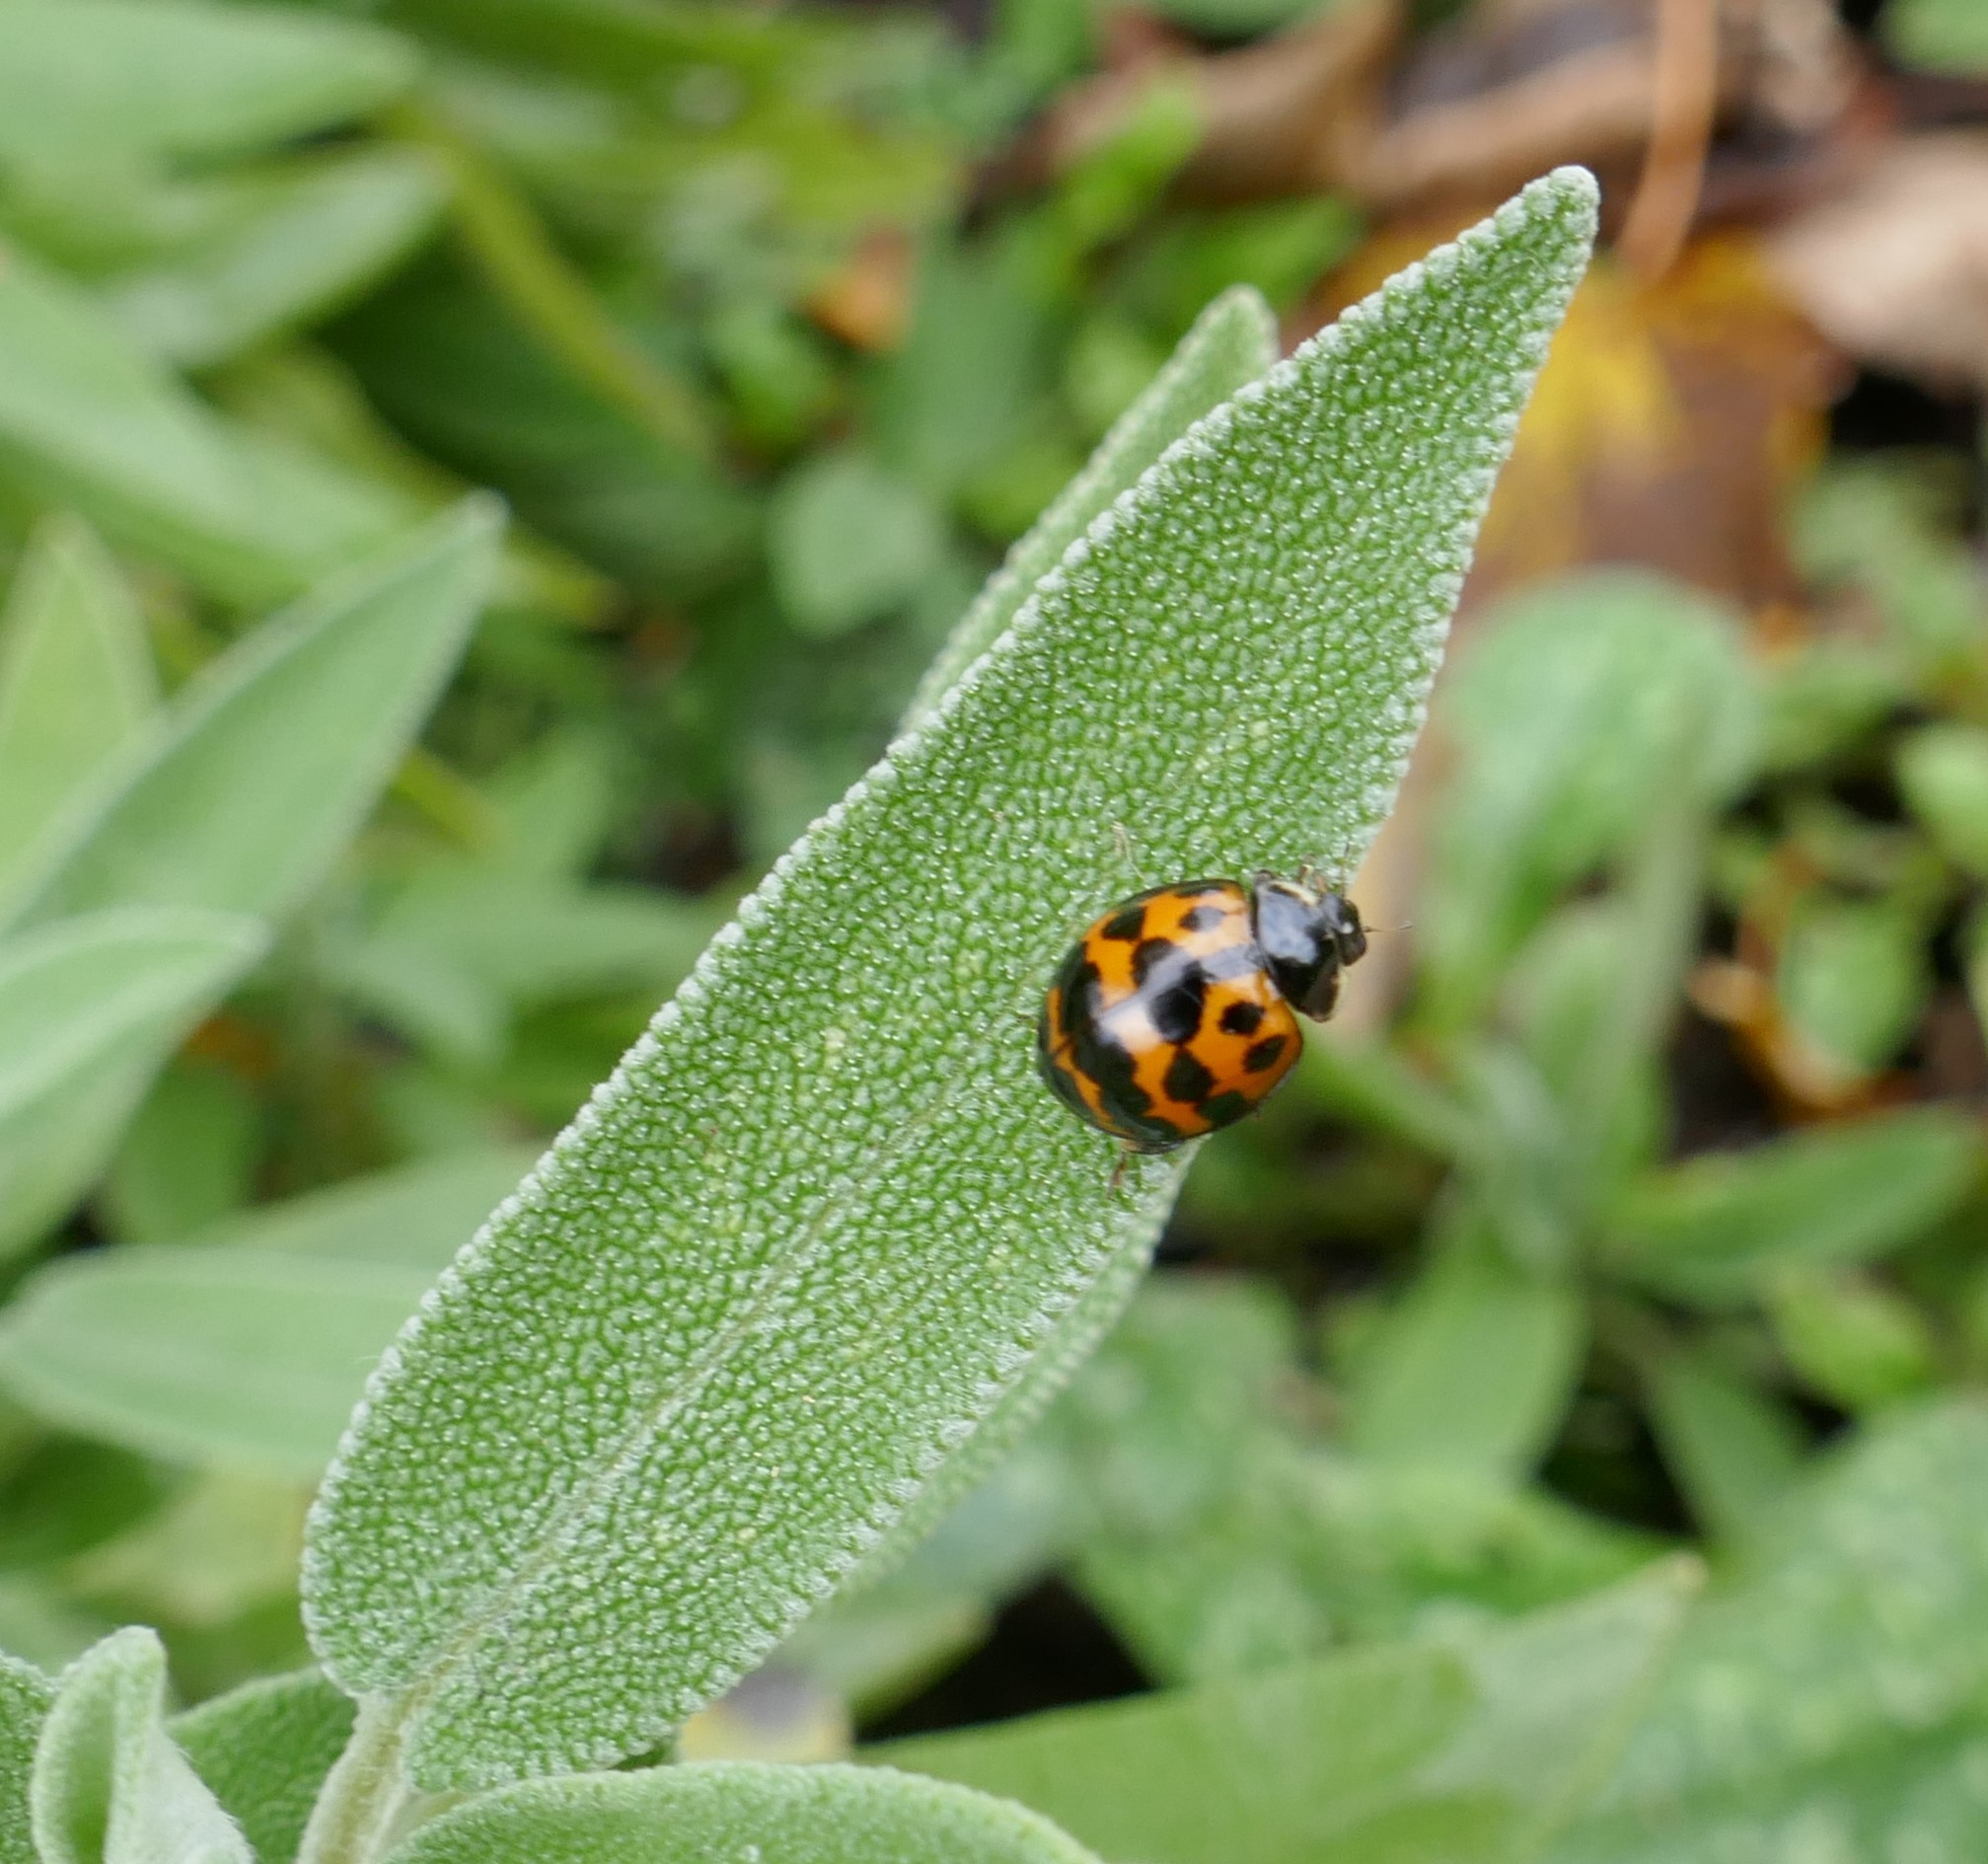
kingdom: Animalia
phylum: Arthropoda
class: Insecta
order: Coleoptera
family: Coccinellidae
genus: Harmonia
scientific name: Harmonia axyridis
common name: Harlequin ladybird
